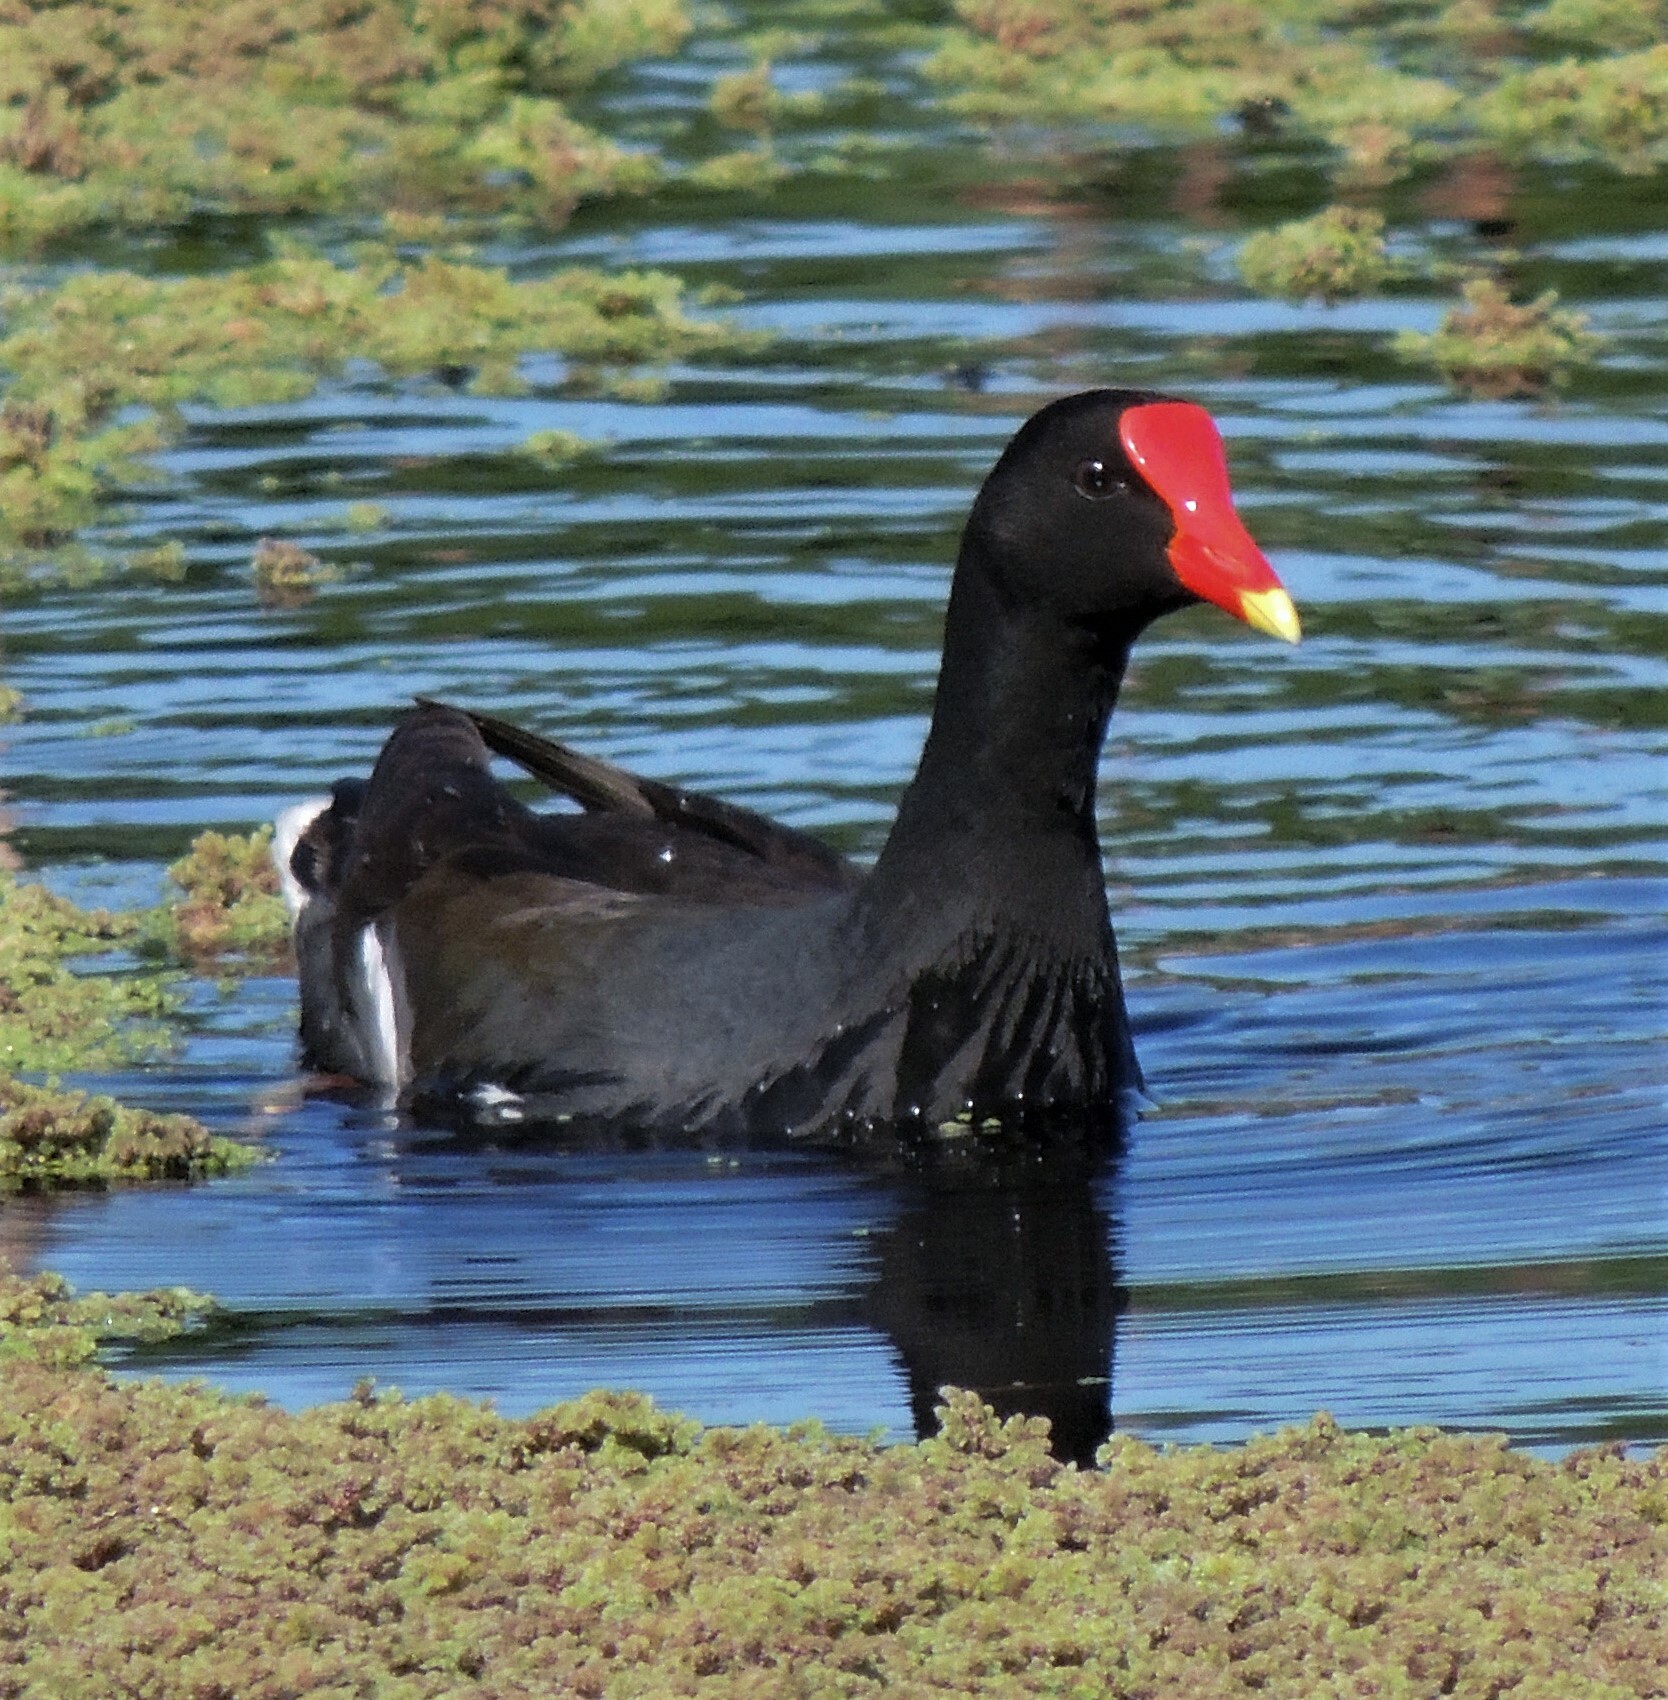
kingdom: Animalia
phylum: Chordata
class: Aves
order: Gruiformes
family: Rallidae
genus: Gallinula
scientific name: Gallinula chloropus
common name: Common moorhen
